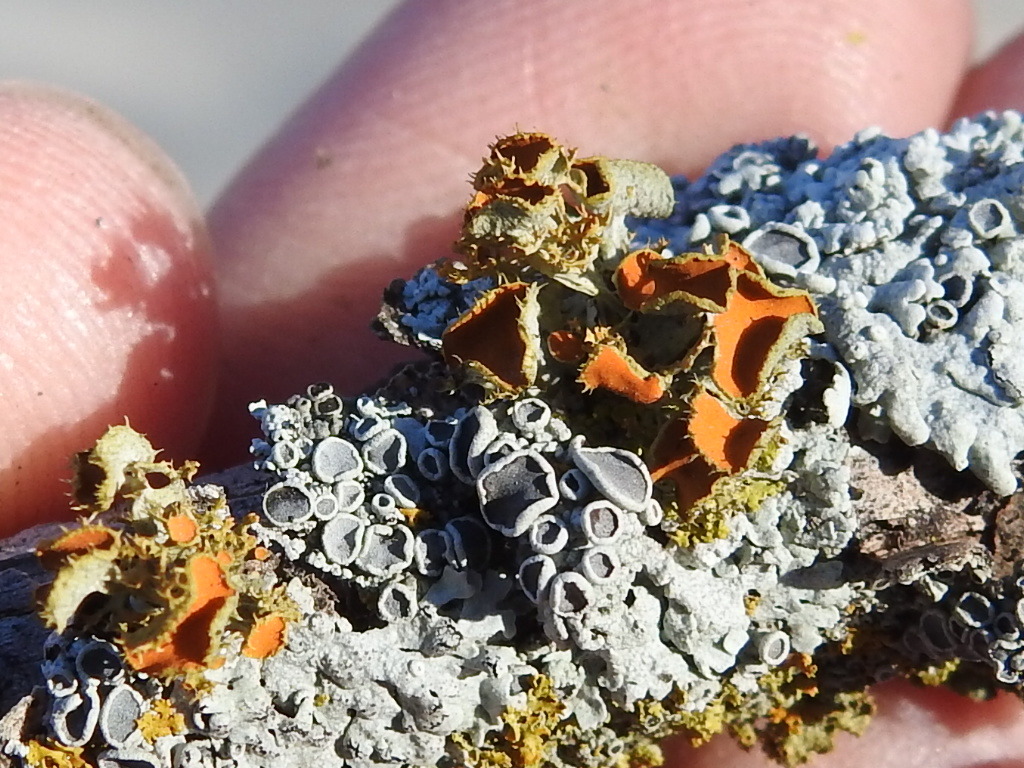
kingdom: Fungi
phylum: Ascomycota
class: Lecanoromycetes
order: Teloschistales
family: Teloschistaceae
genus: Niorma
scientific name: Niorma chrysophthalma
